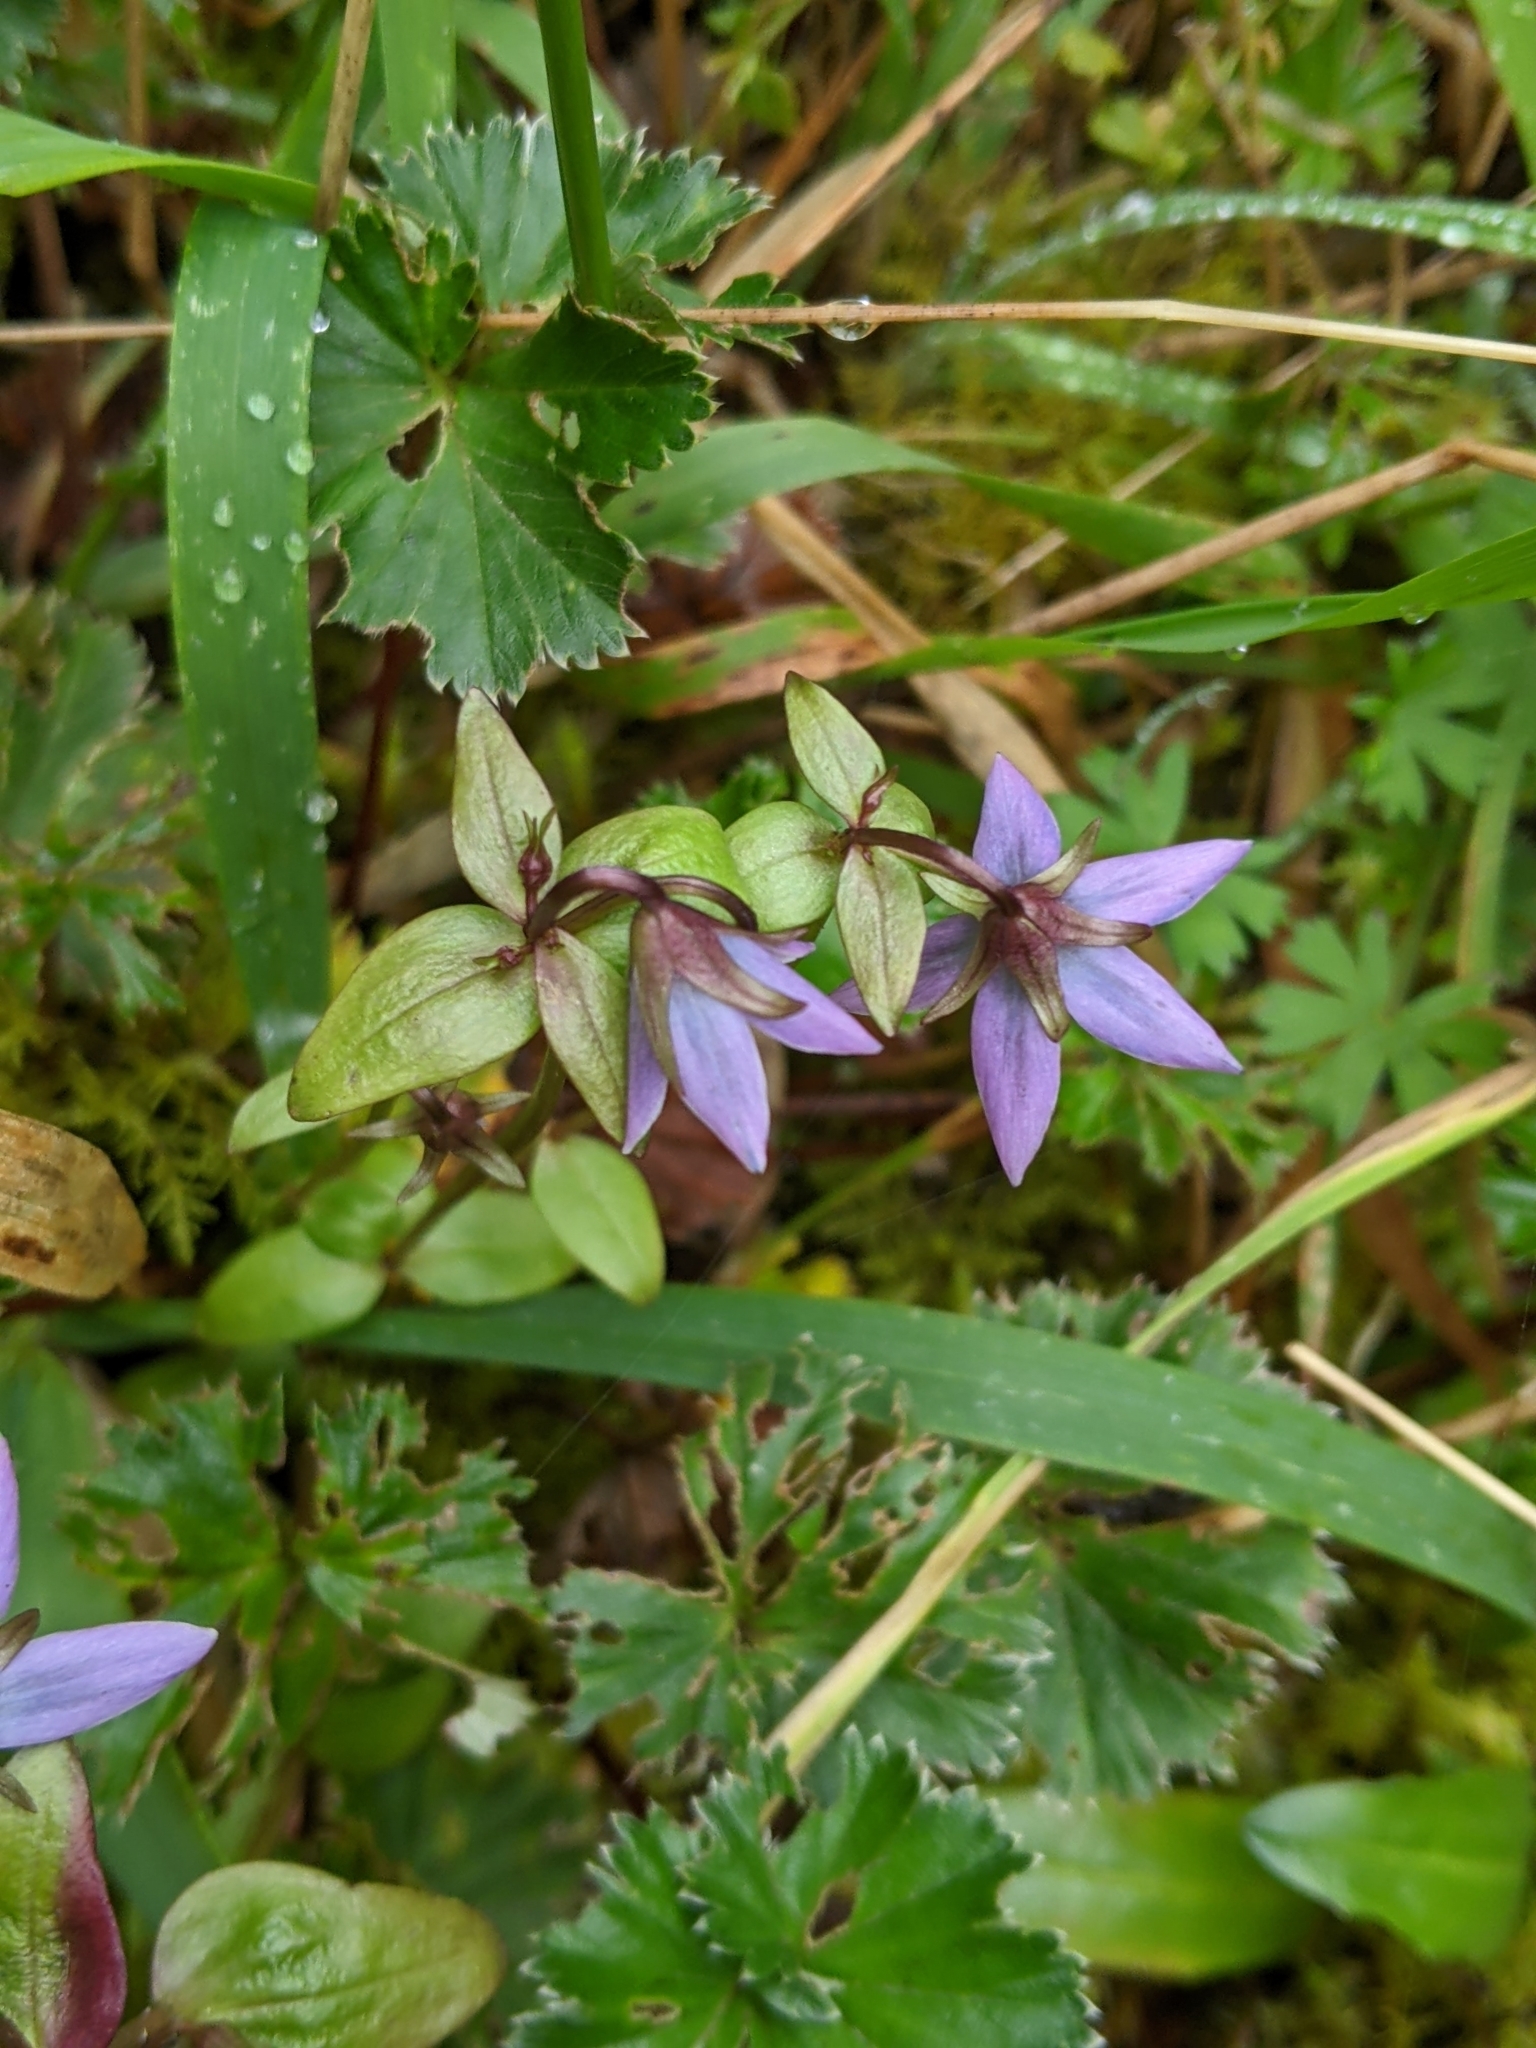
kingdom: Plantae
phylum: Tracheophyta
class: Magnoliopsida
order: Gentianales
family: Gentianaceae
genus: Gentianella
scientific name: Gentianella rapunculoides
